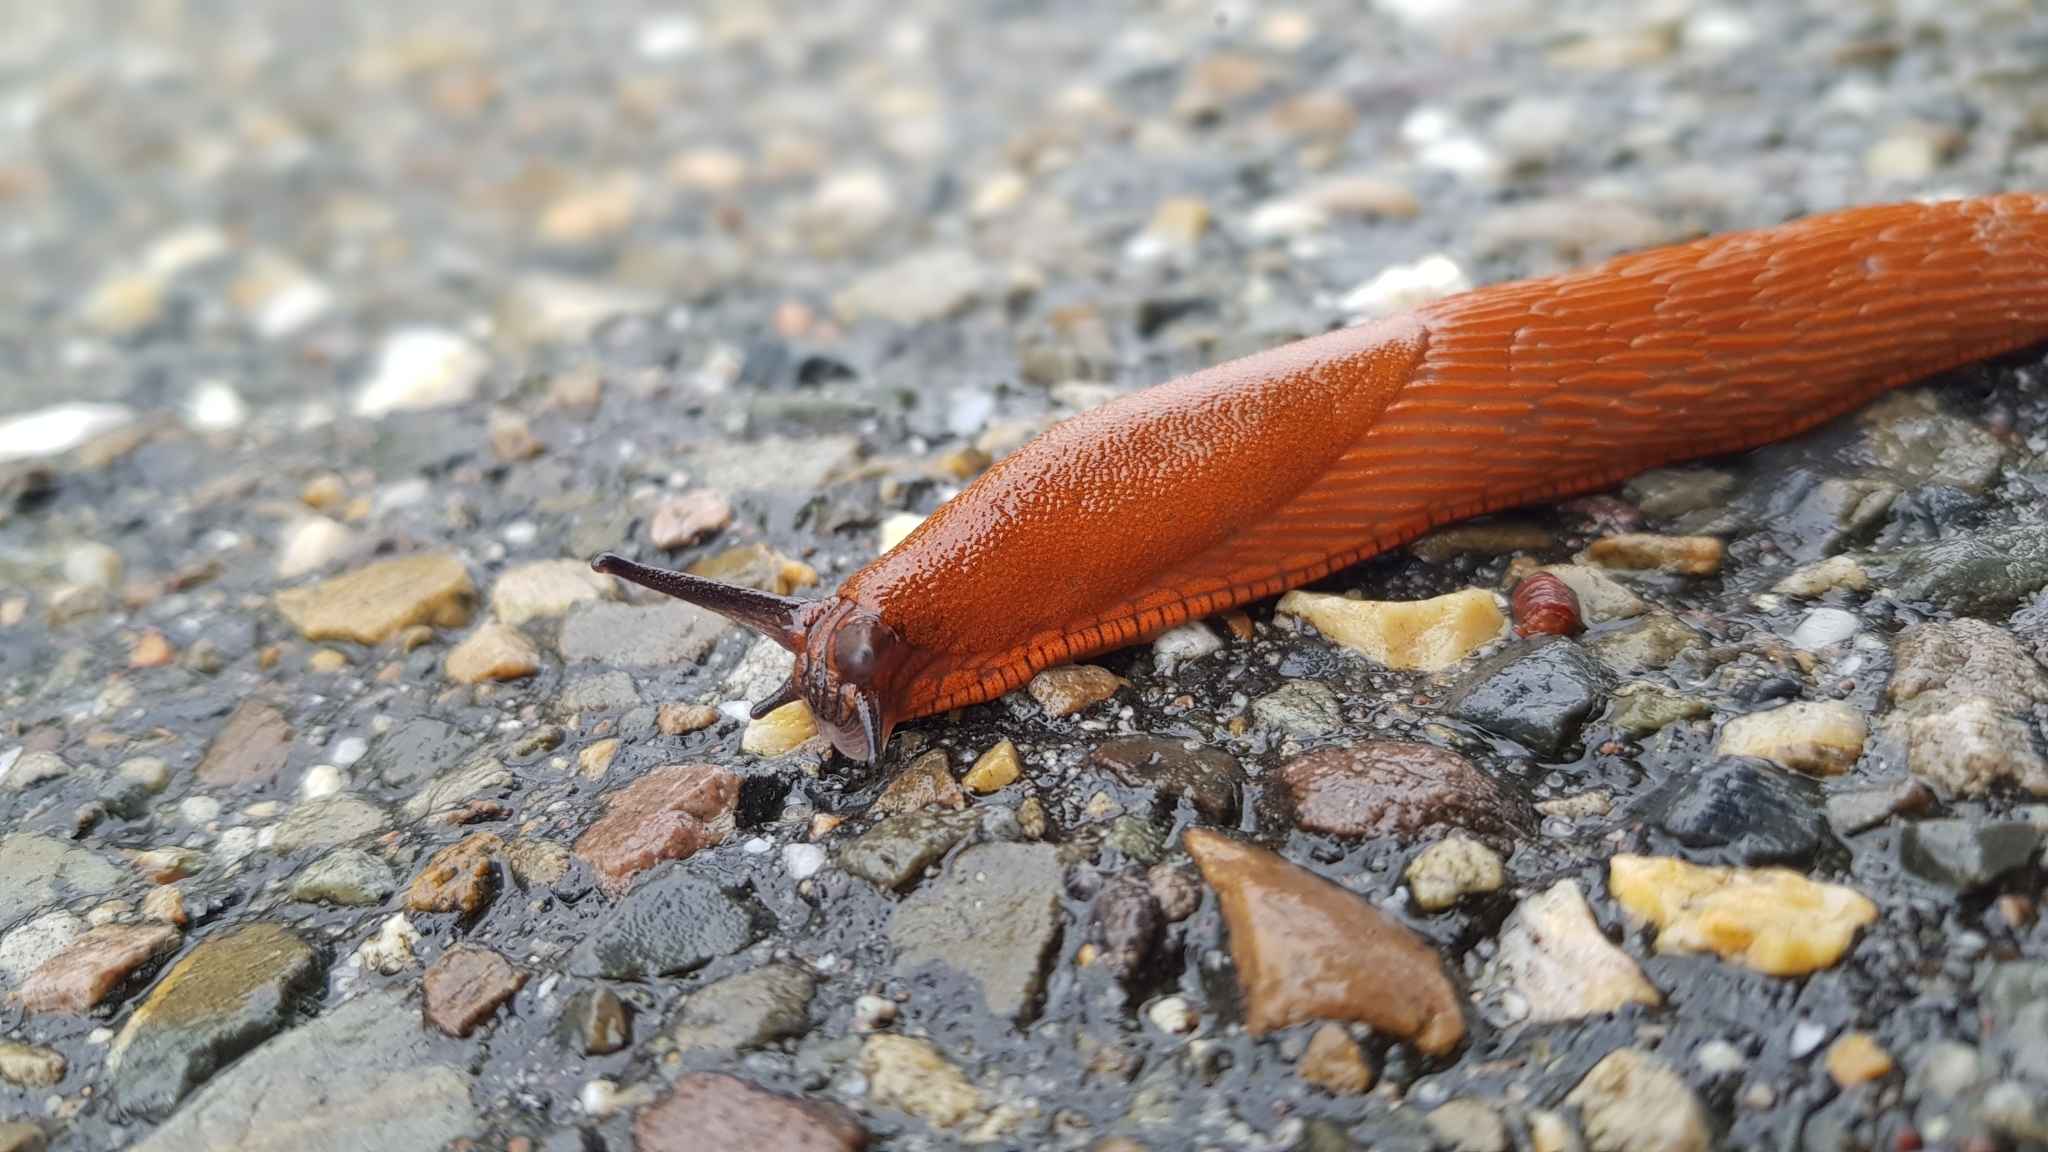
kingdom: Animalia
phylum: Mollusca
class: Gastropoda
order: Stylommatophora
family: Arionidae
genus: Arion
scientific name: Arion vulgaris
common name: Lusitanian slug
